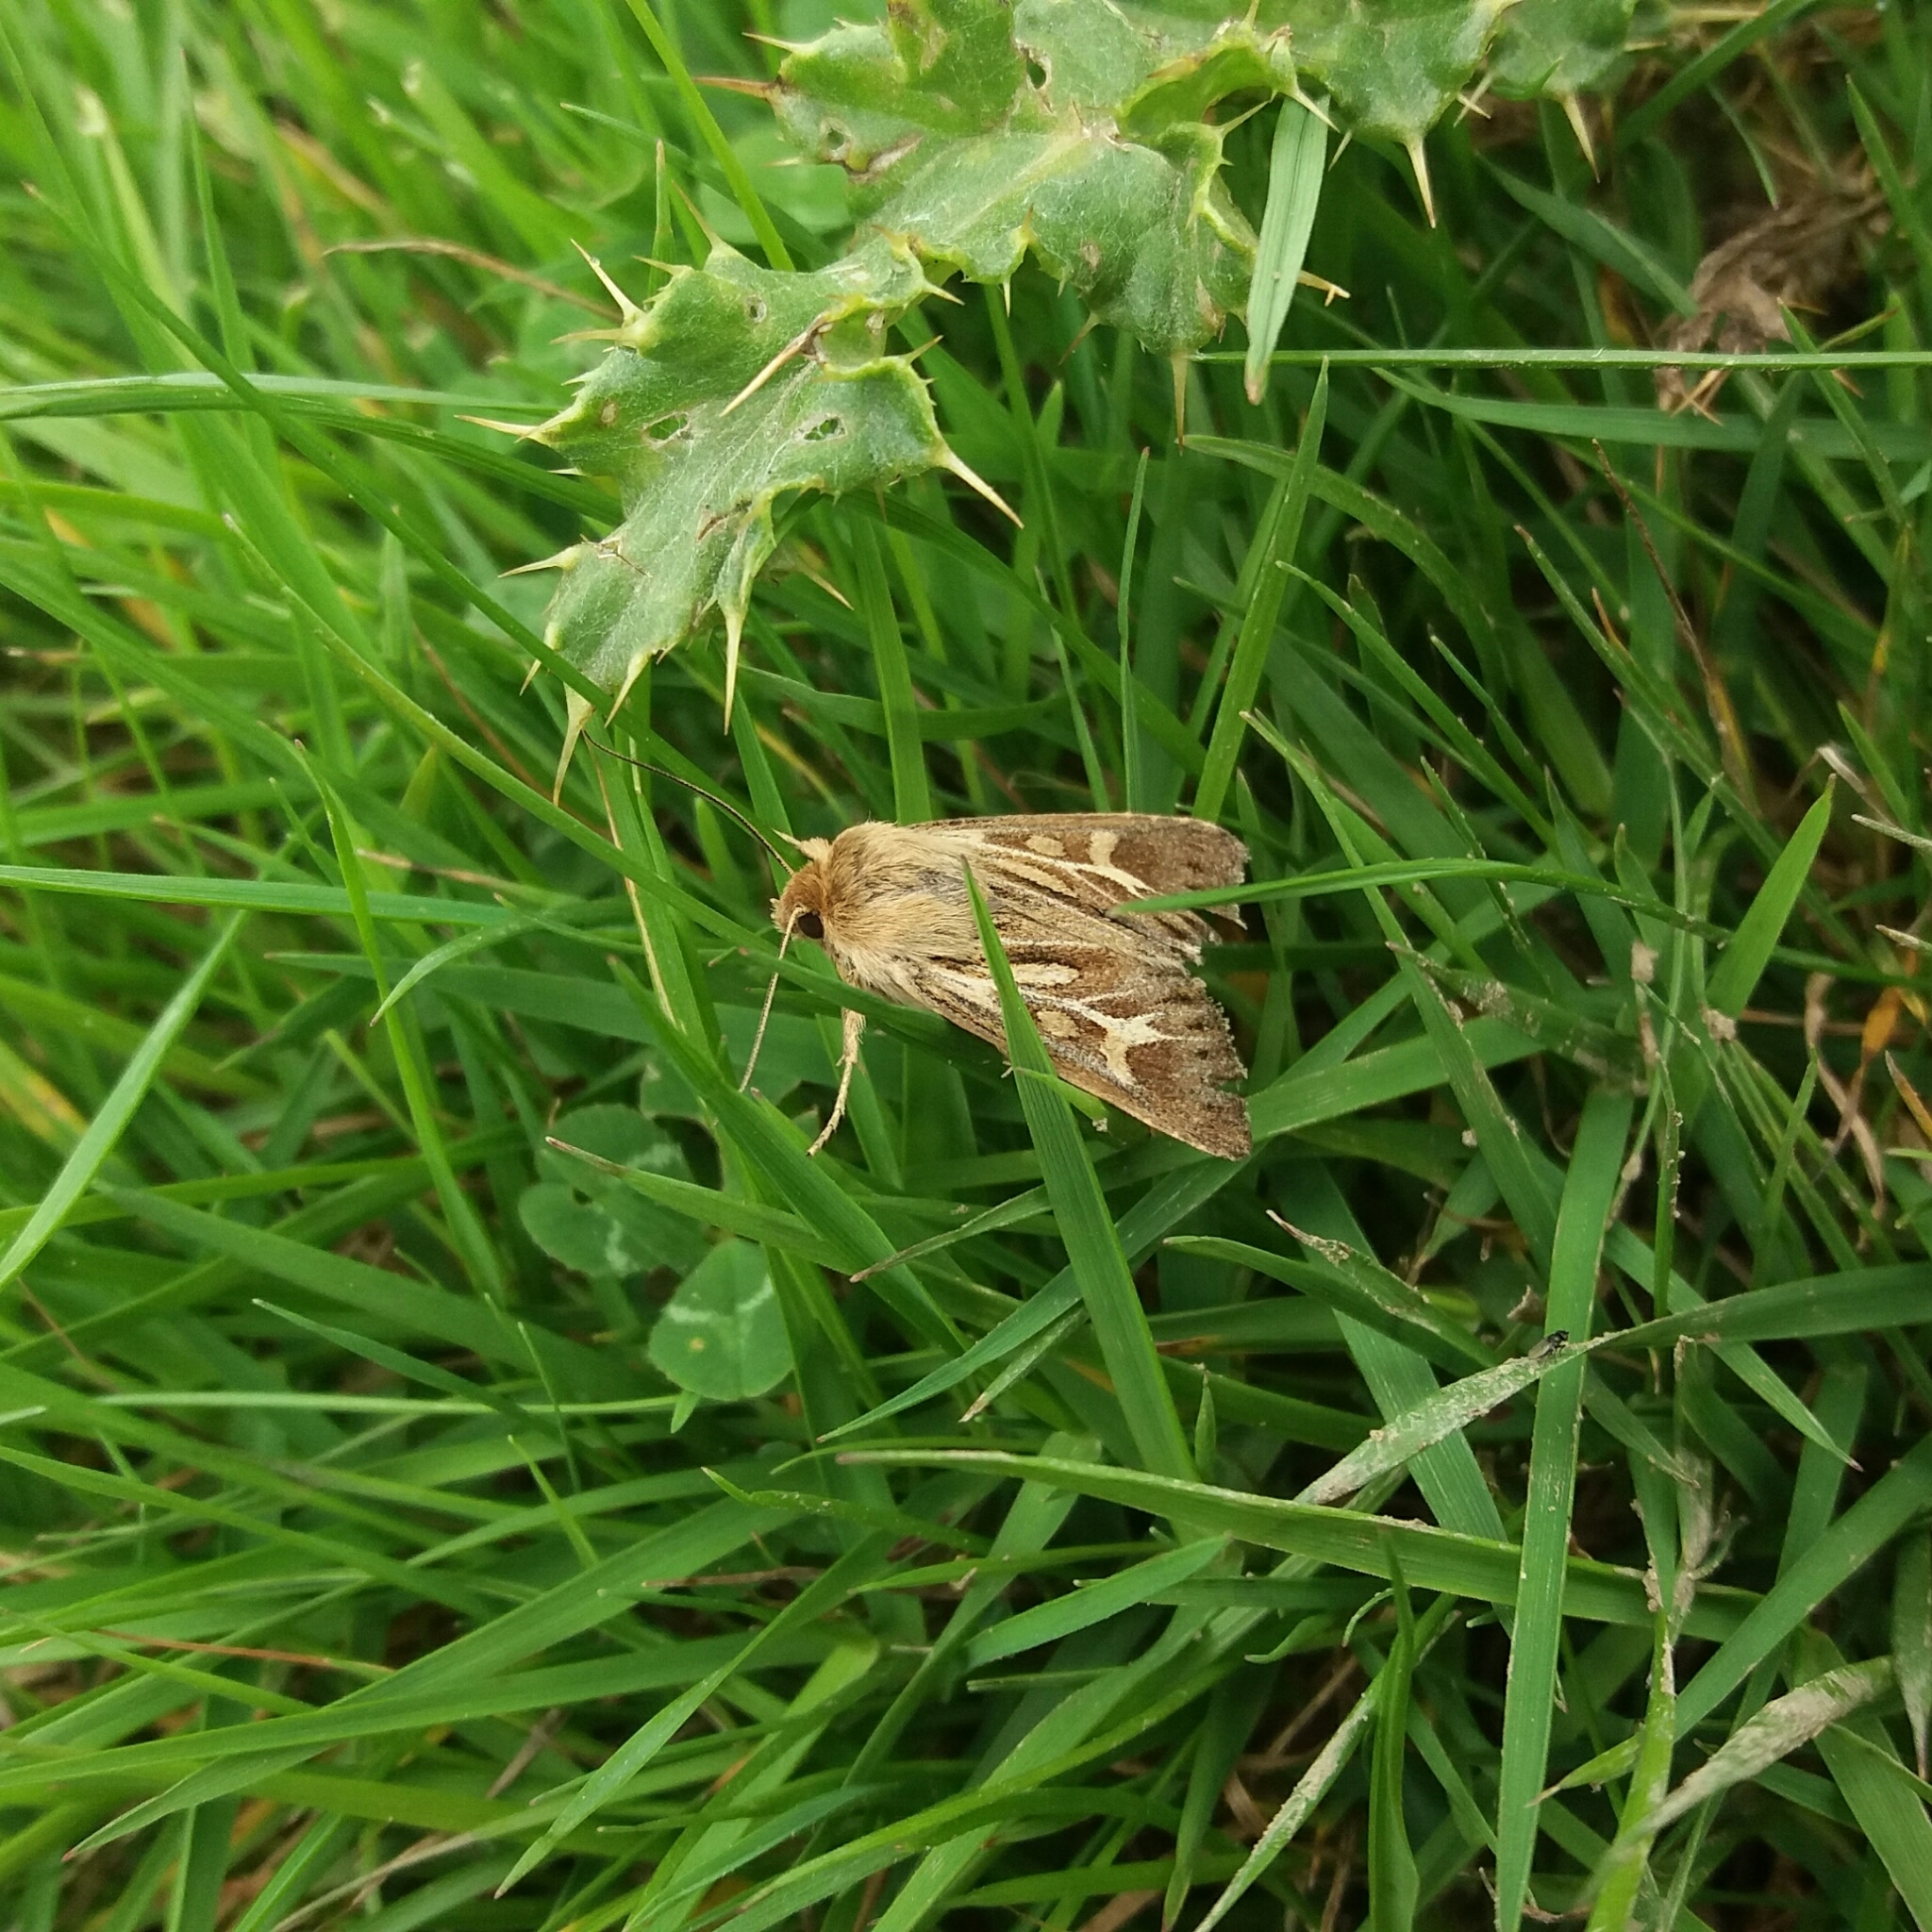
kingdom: Animalia
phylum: Arthropoda
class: Insecta
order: Lepidoptera
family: Noctuidae
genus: Cerapteryx
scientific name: Cerapteryx graminis
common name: Antler moth
